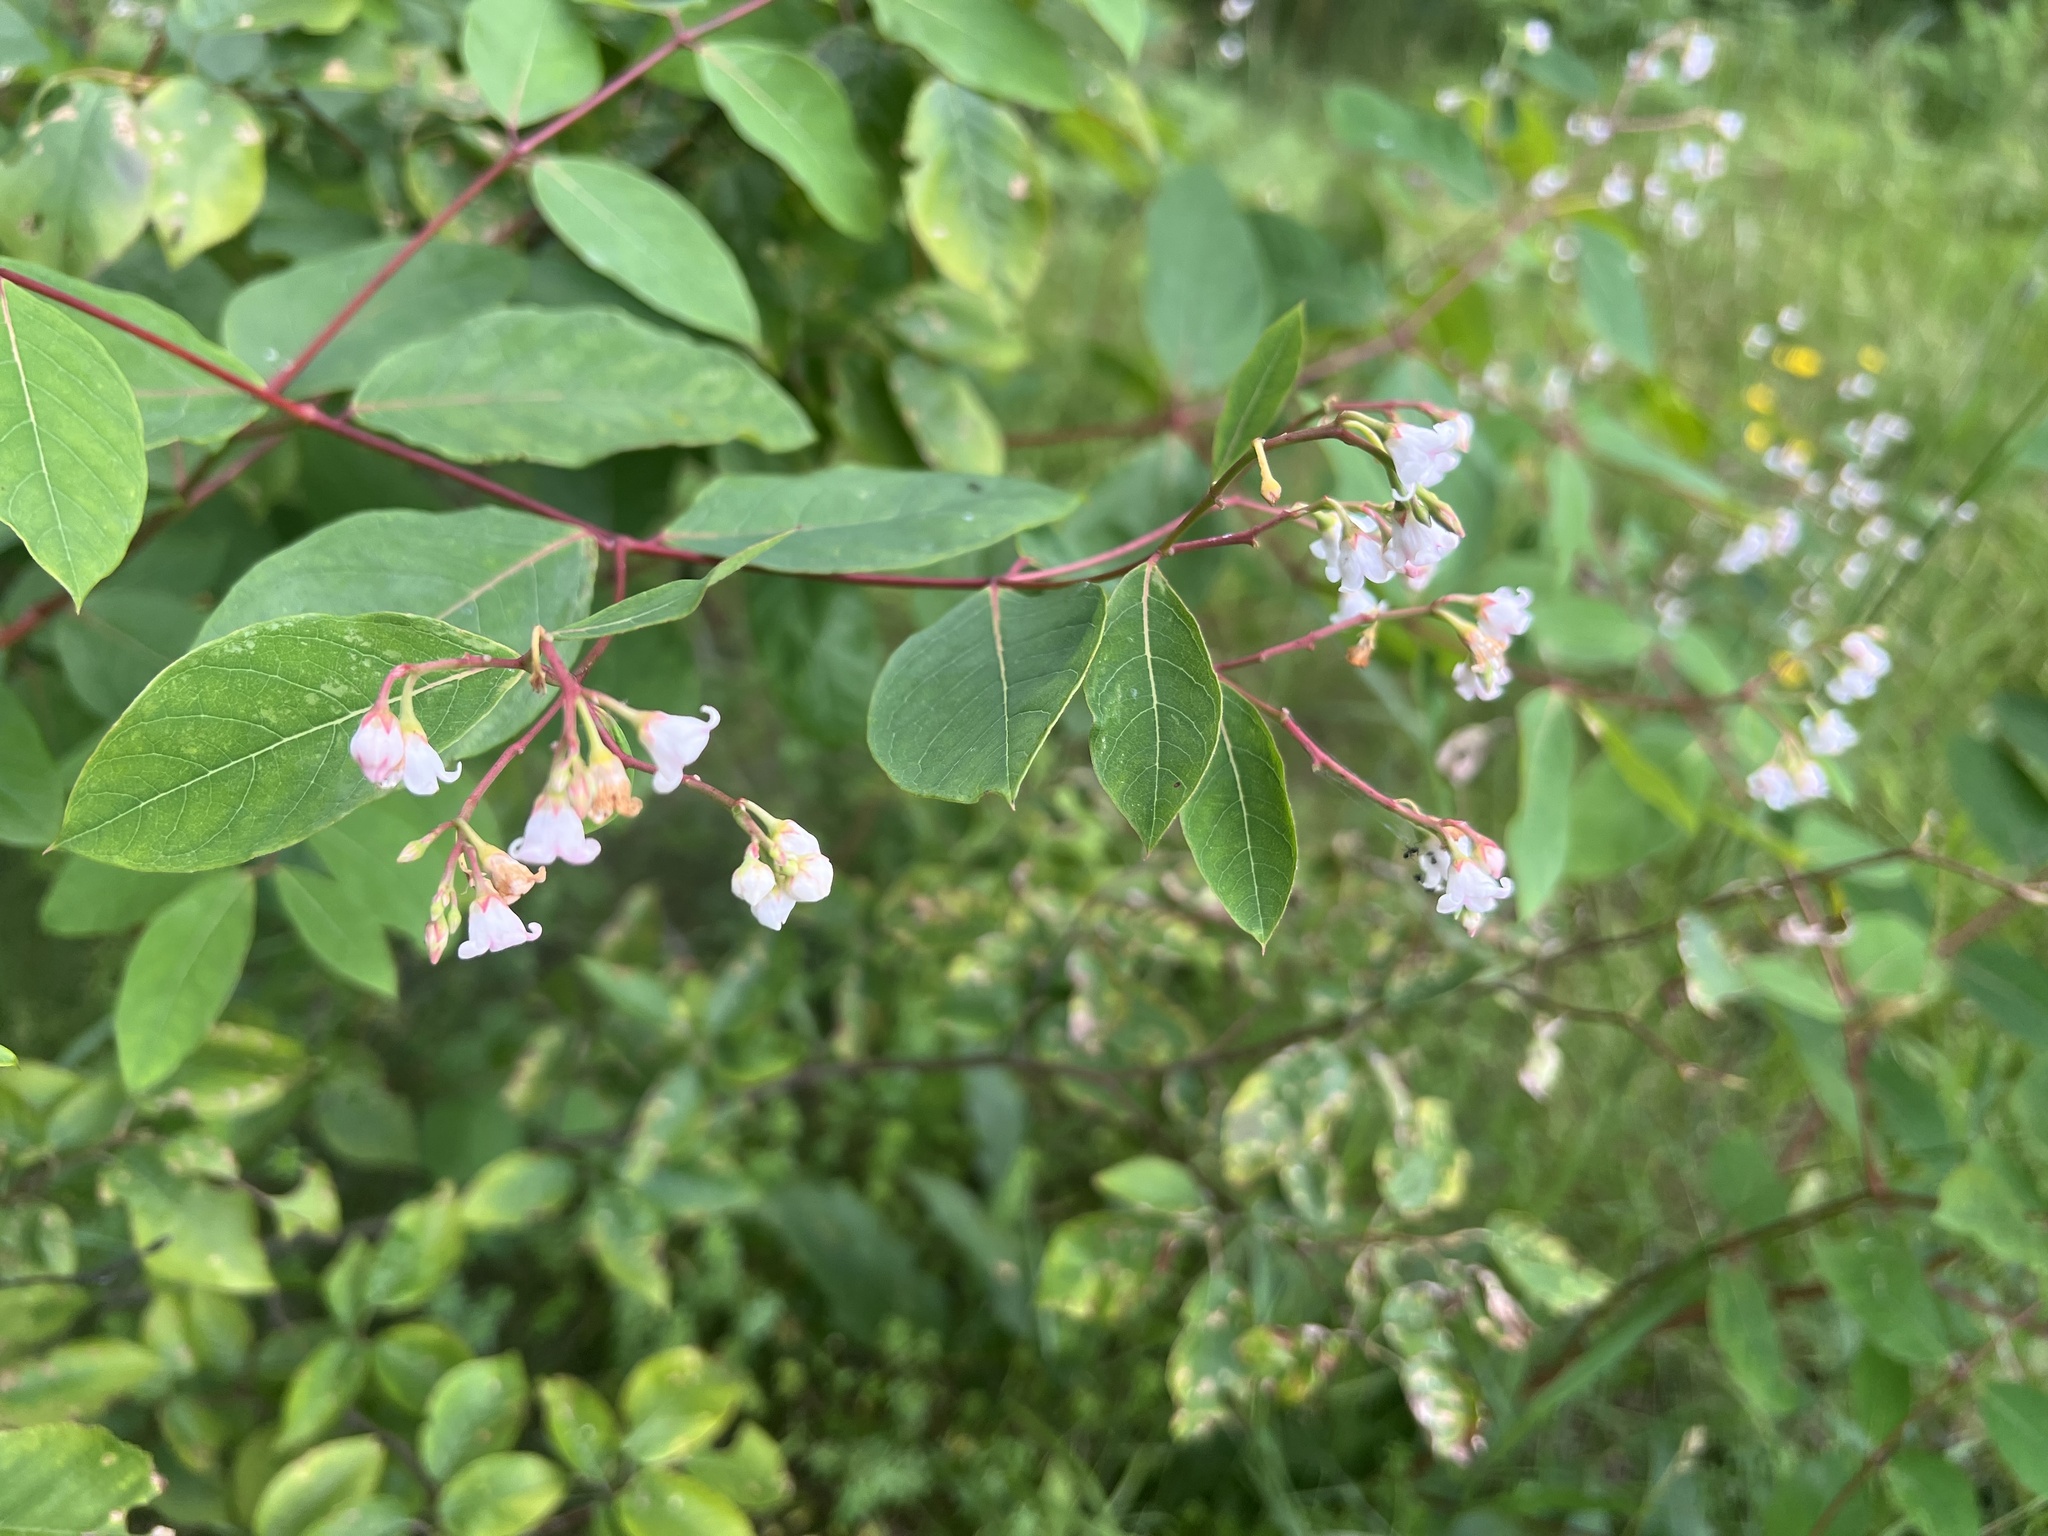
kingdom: Plantae
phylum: Tracheophyta
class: Magnoliopsida
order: Gentianales
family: Apocynaceae
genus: Apocynum
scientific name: Apocynum androsaemifolium
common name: Spreading dogbane
